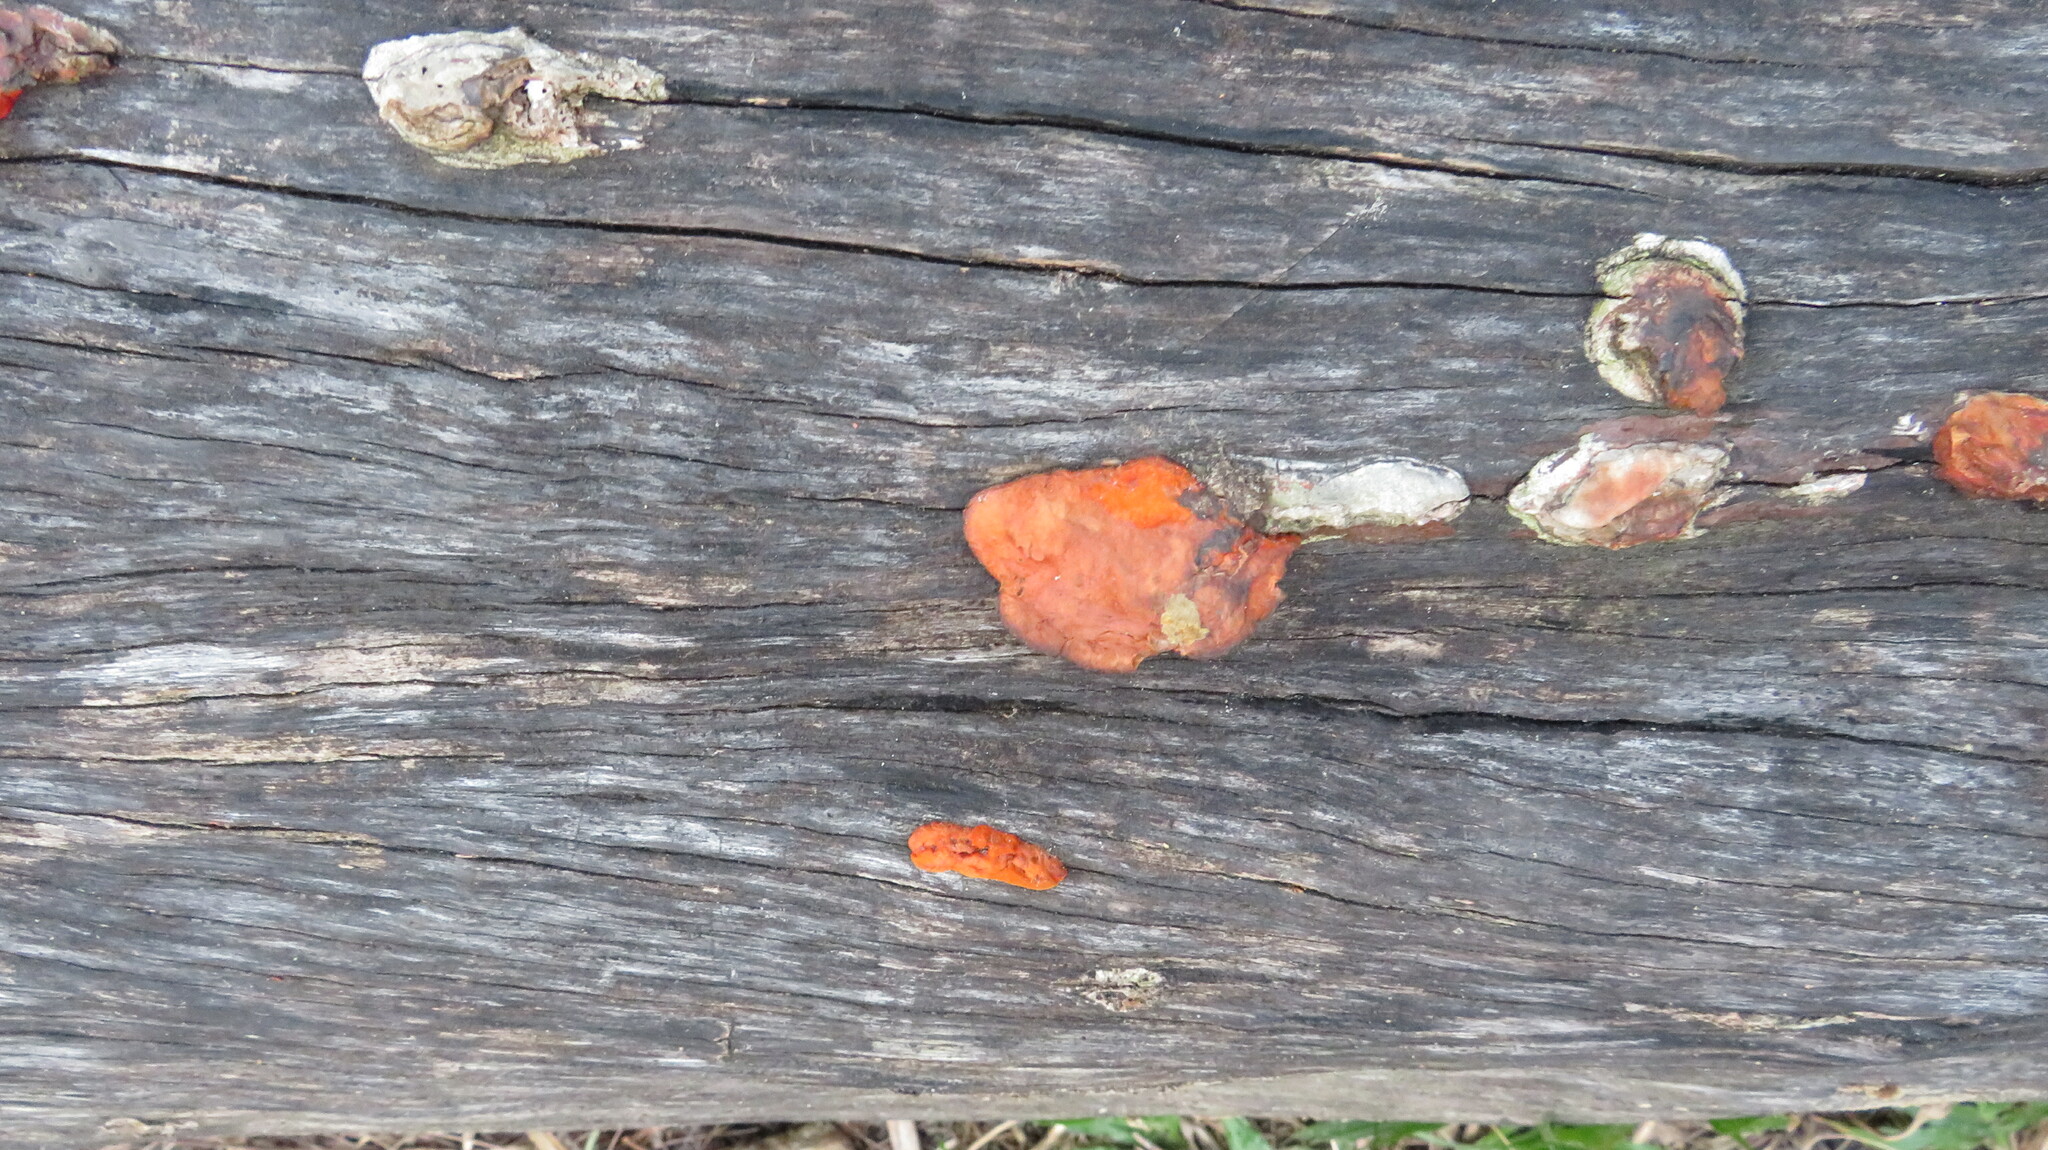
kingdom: Fungi
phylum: Basidiomycota
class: Agaricomycetes
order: Polyporales
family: Polyporaceae
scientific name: Polyporaceae
